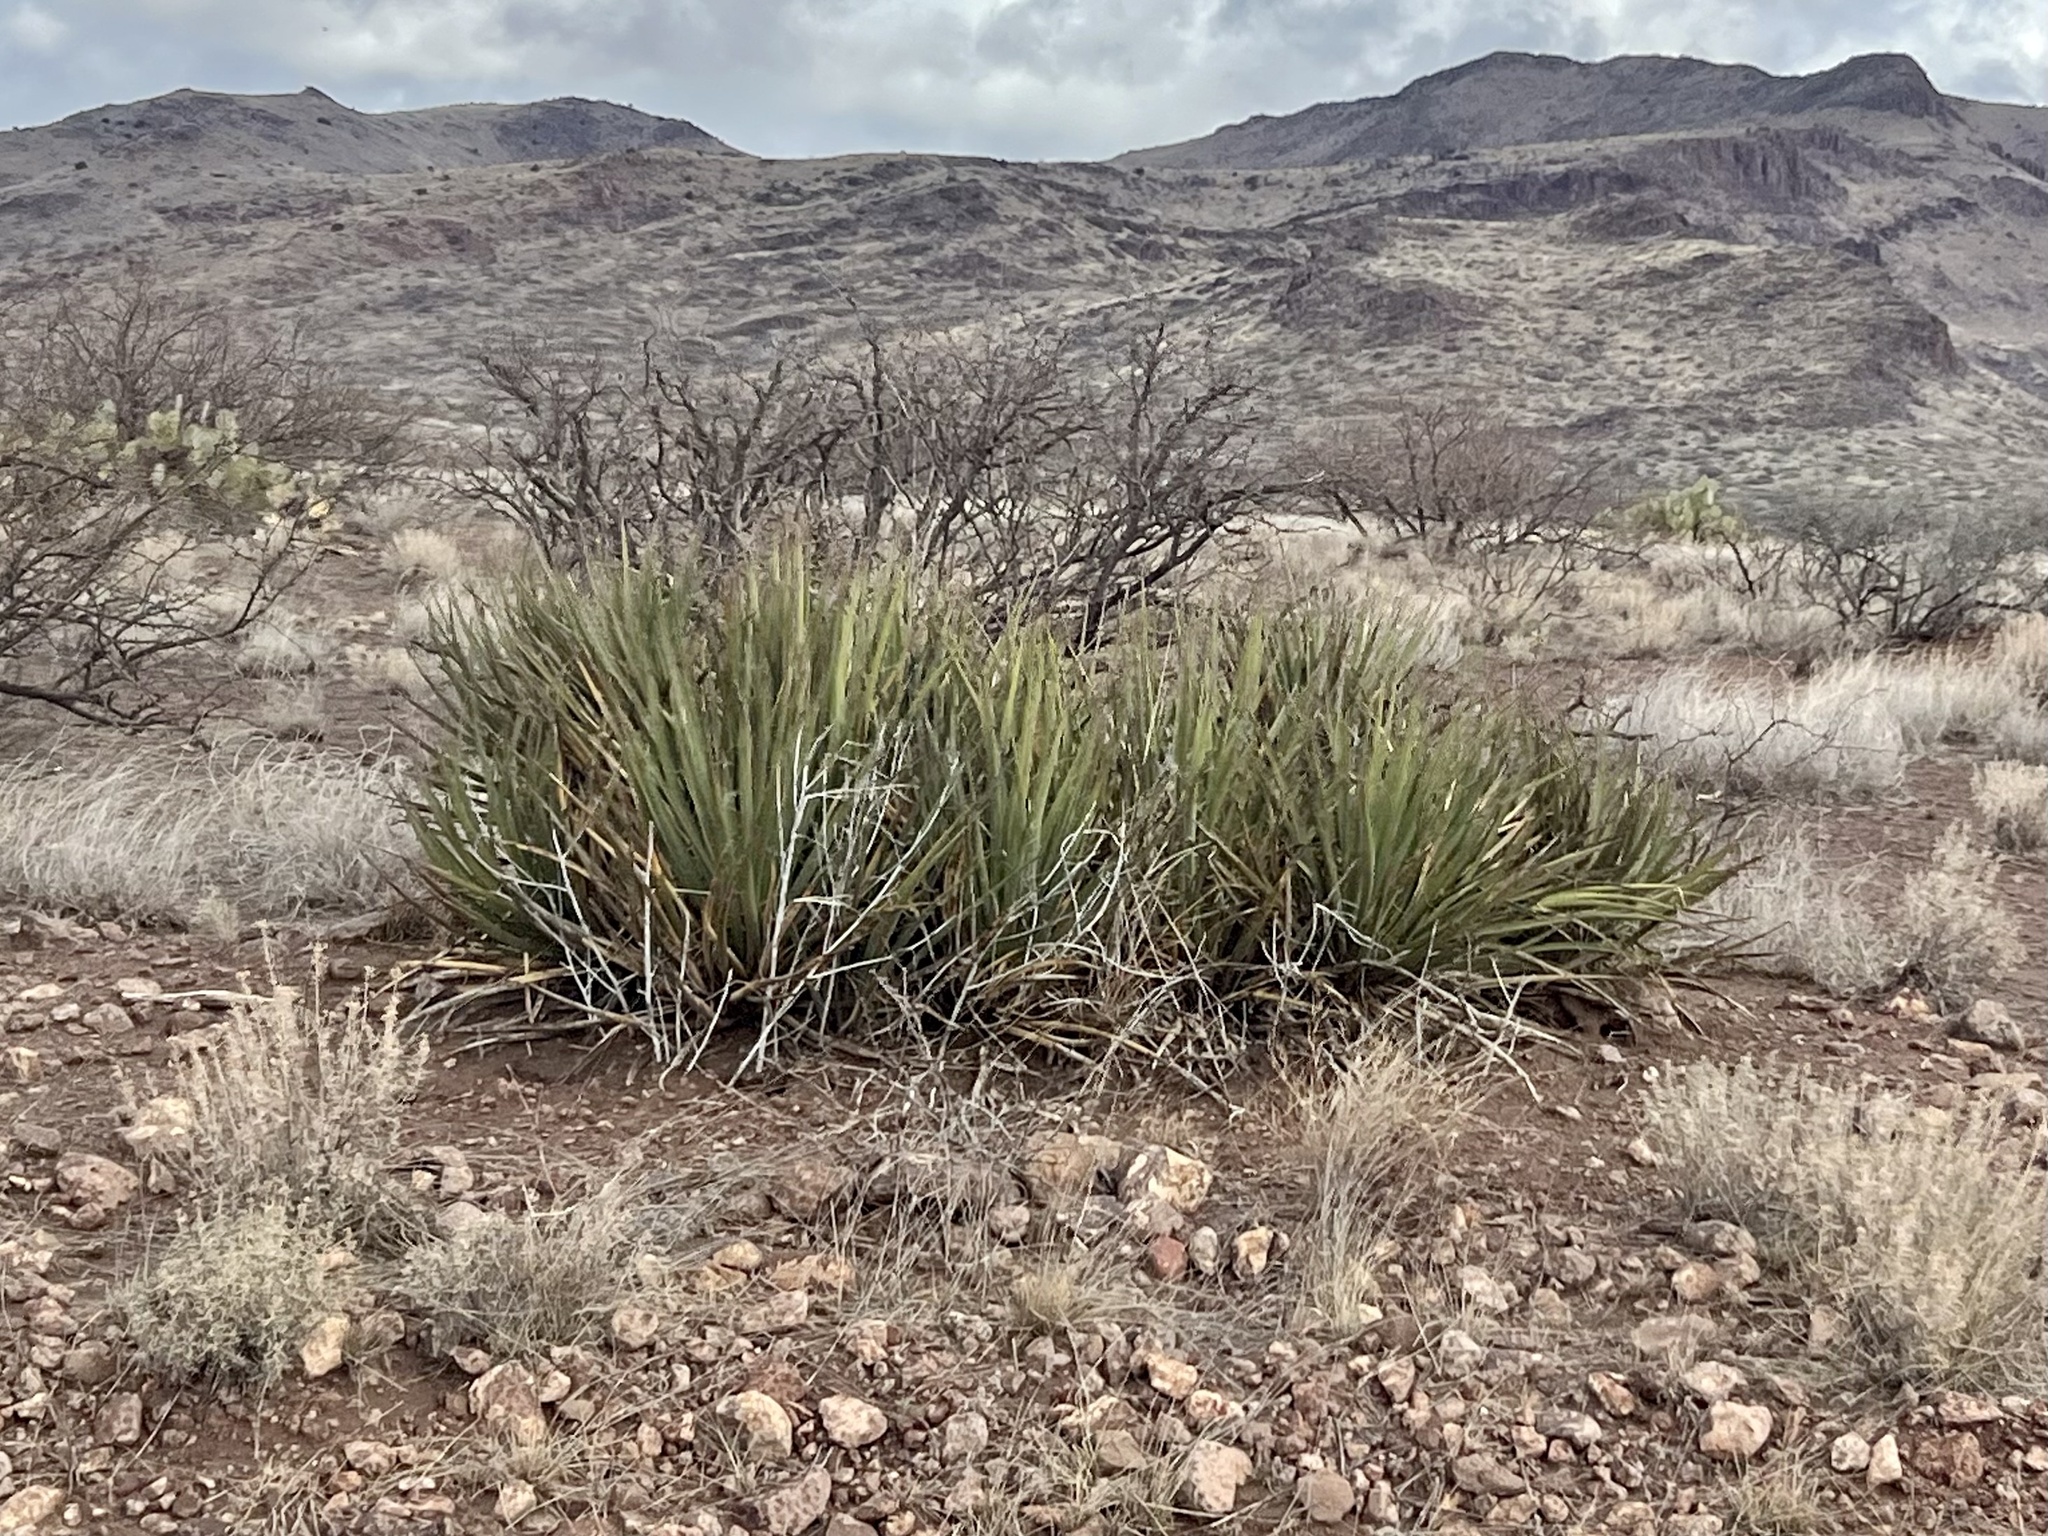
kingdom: Plantae
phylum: Tracheophyta
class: Liliopsida
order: Asparagales
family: Asparagaceae
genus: Yucca
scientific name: Yucca baccata
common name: Banana yucca
